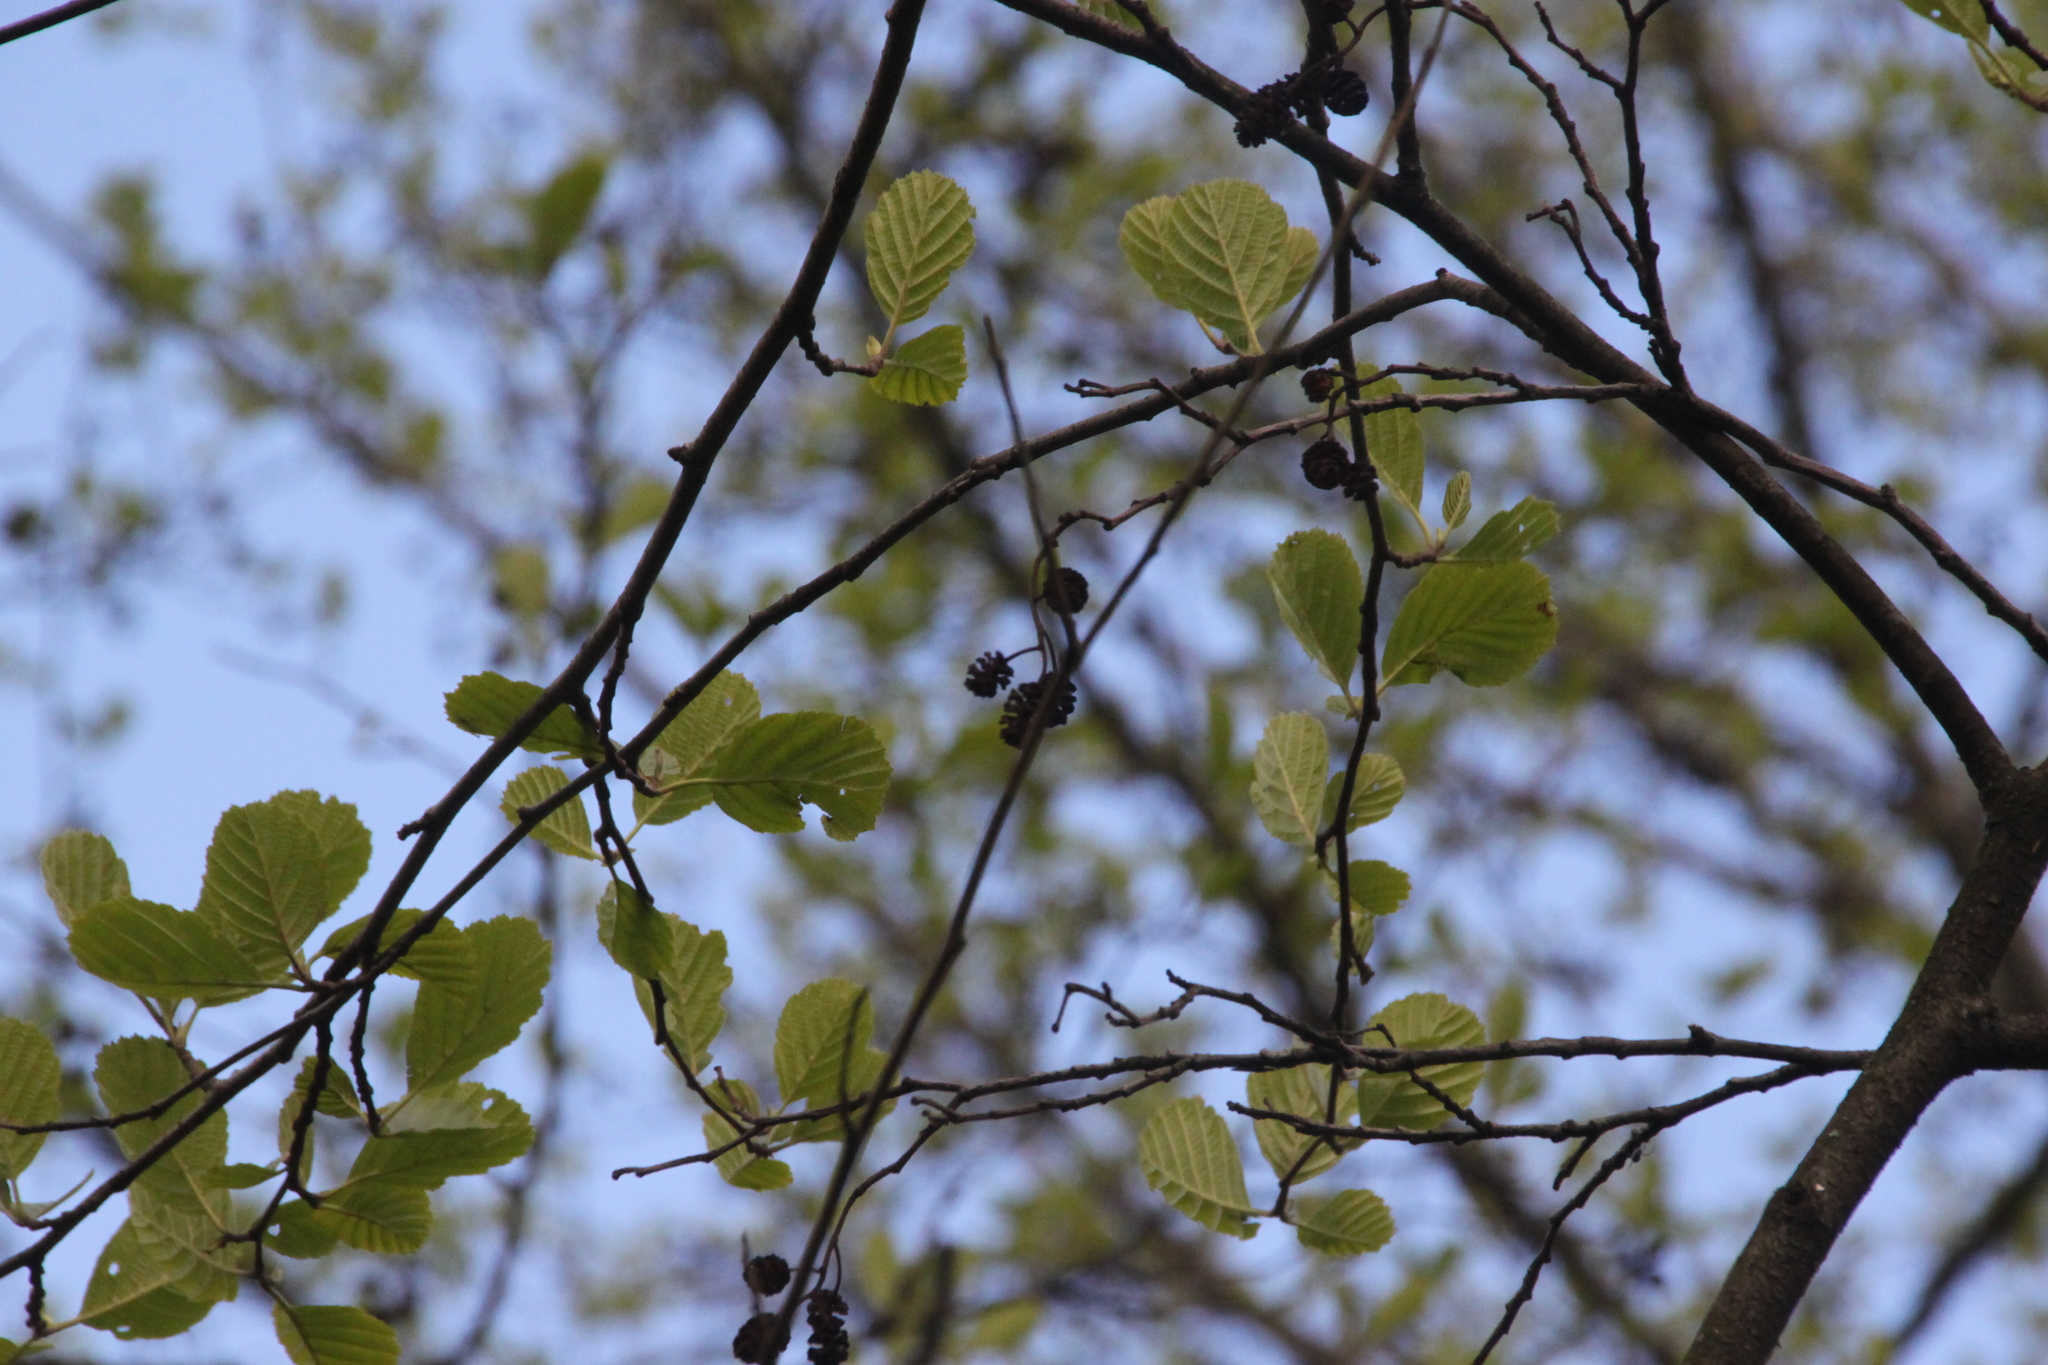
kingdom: Plantae
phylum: Tracheophyta
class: Magnoliopsida
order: Fagales
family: Betulaceae
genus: Alnus
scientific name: Alnus glutinosa
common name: Black alder
